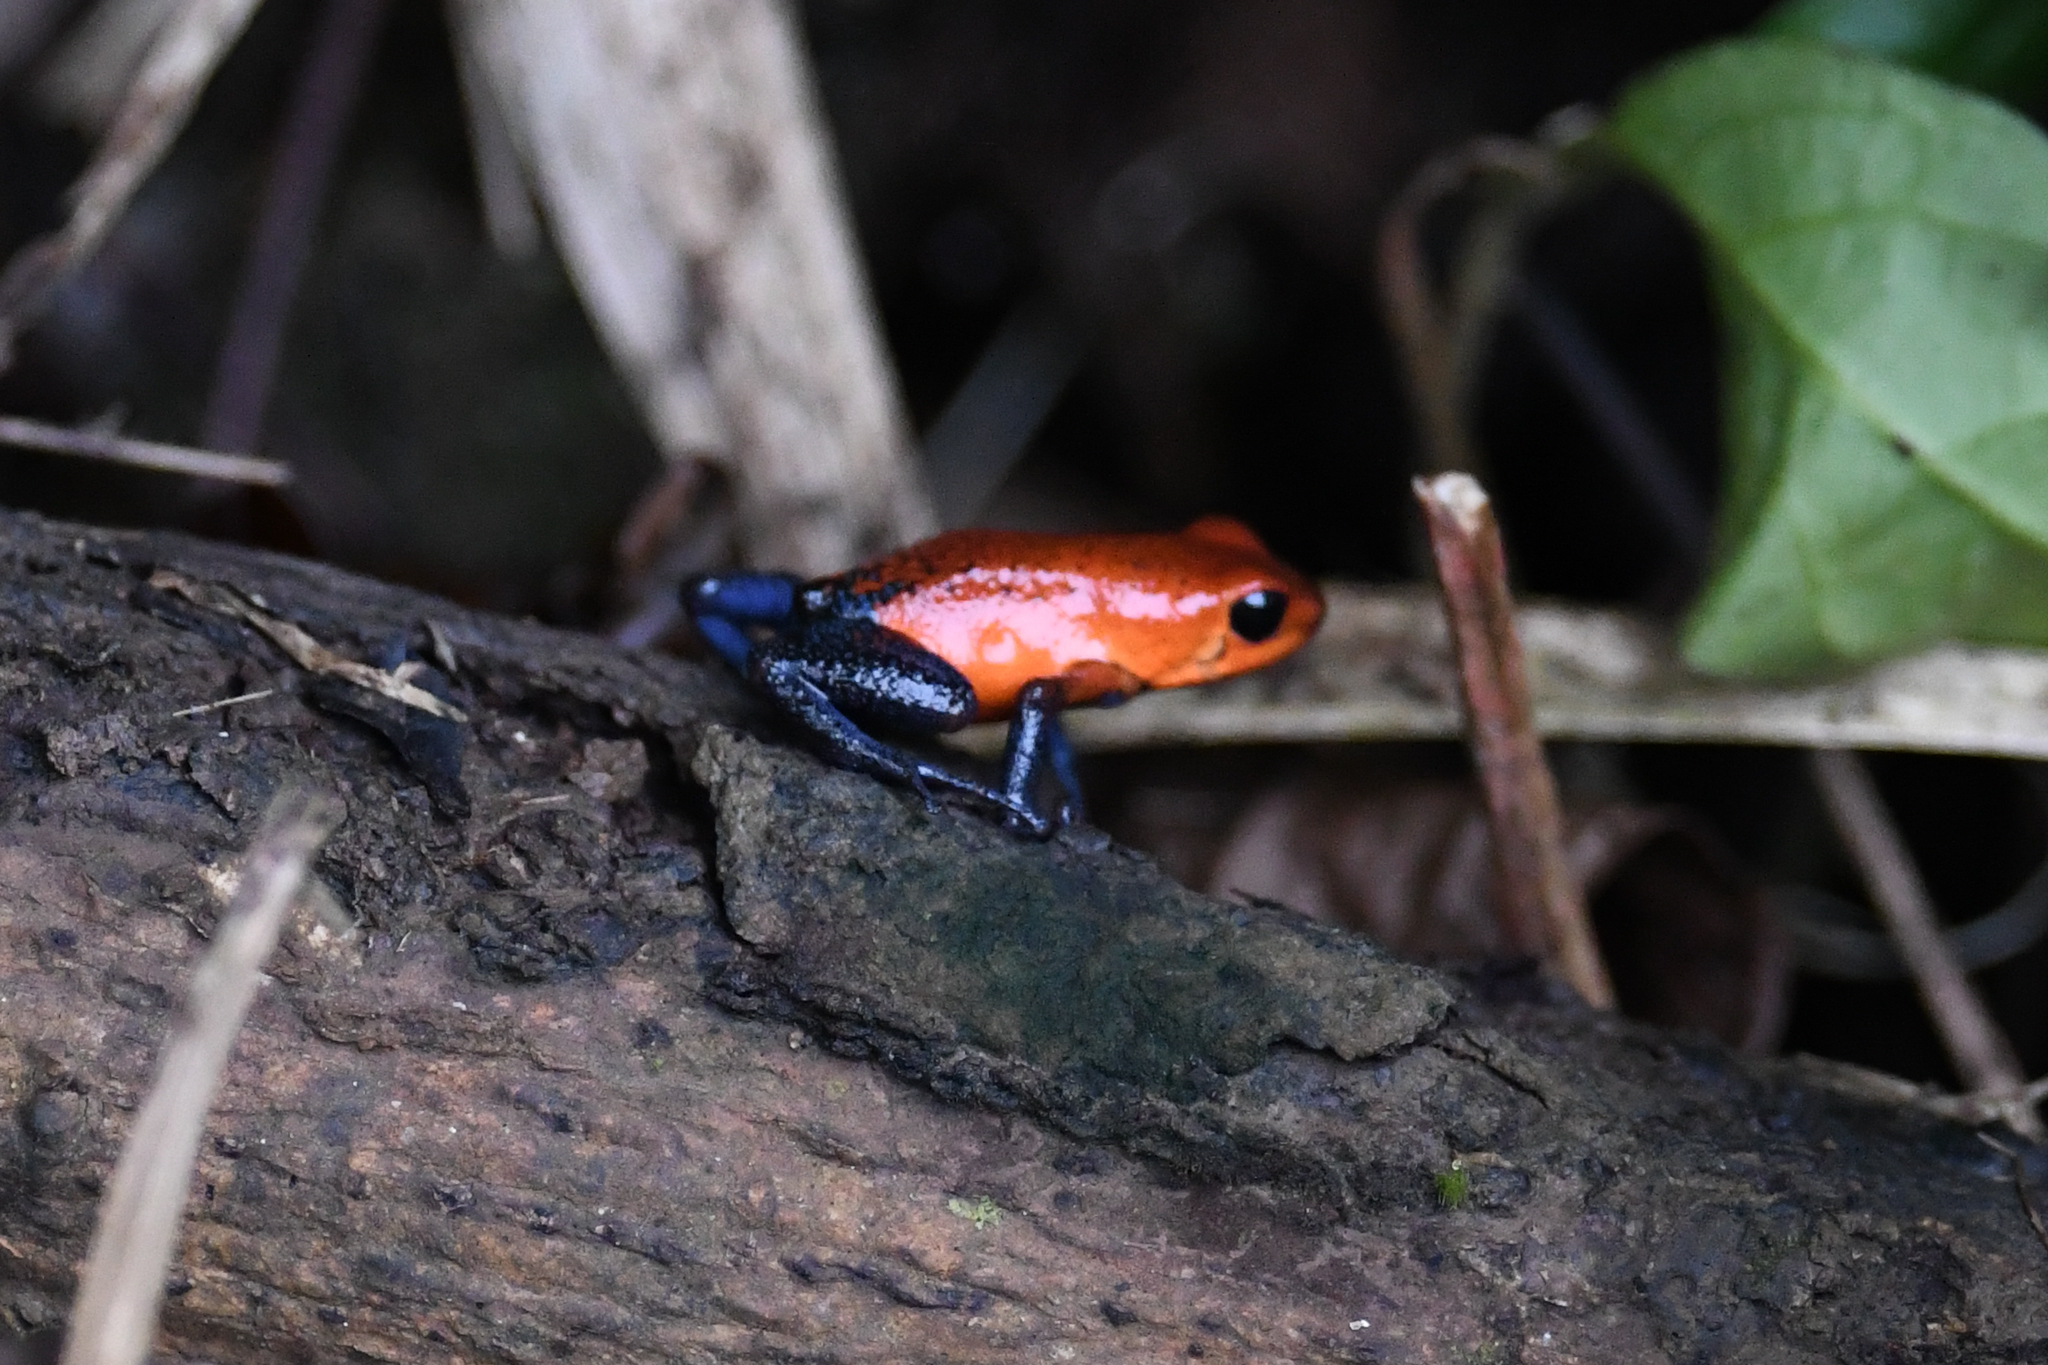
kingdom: Animalia
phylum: Chordata
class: Amphibia
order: Anura
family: Dendrobatidae
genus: Oophaga
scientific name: Oophaga pumilio
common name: Flaming poison frog
